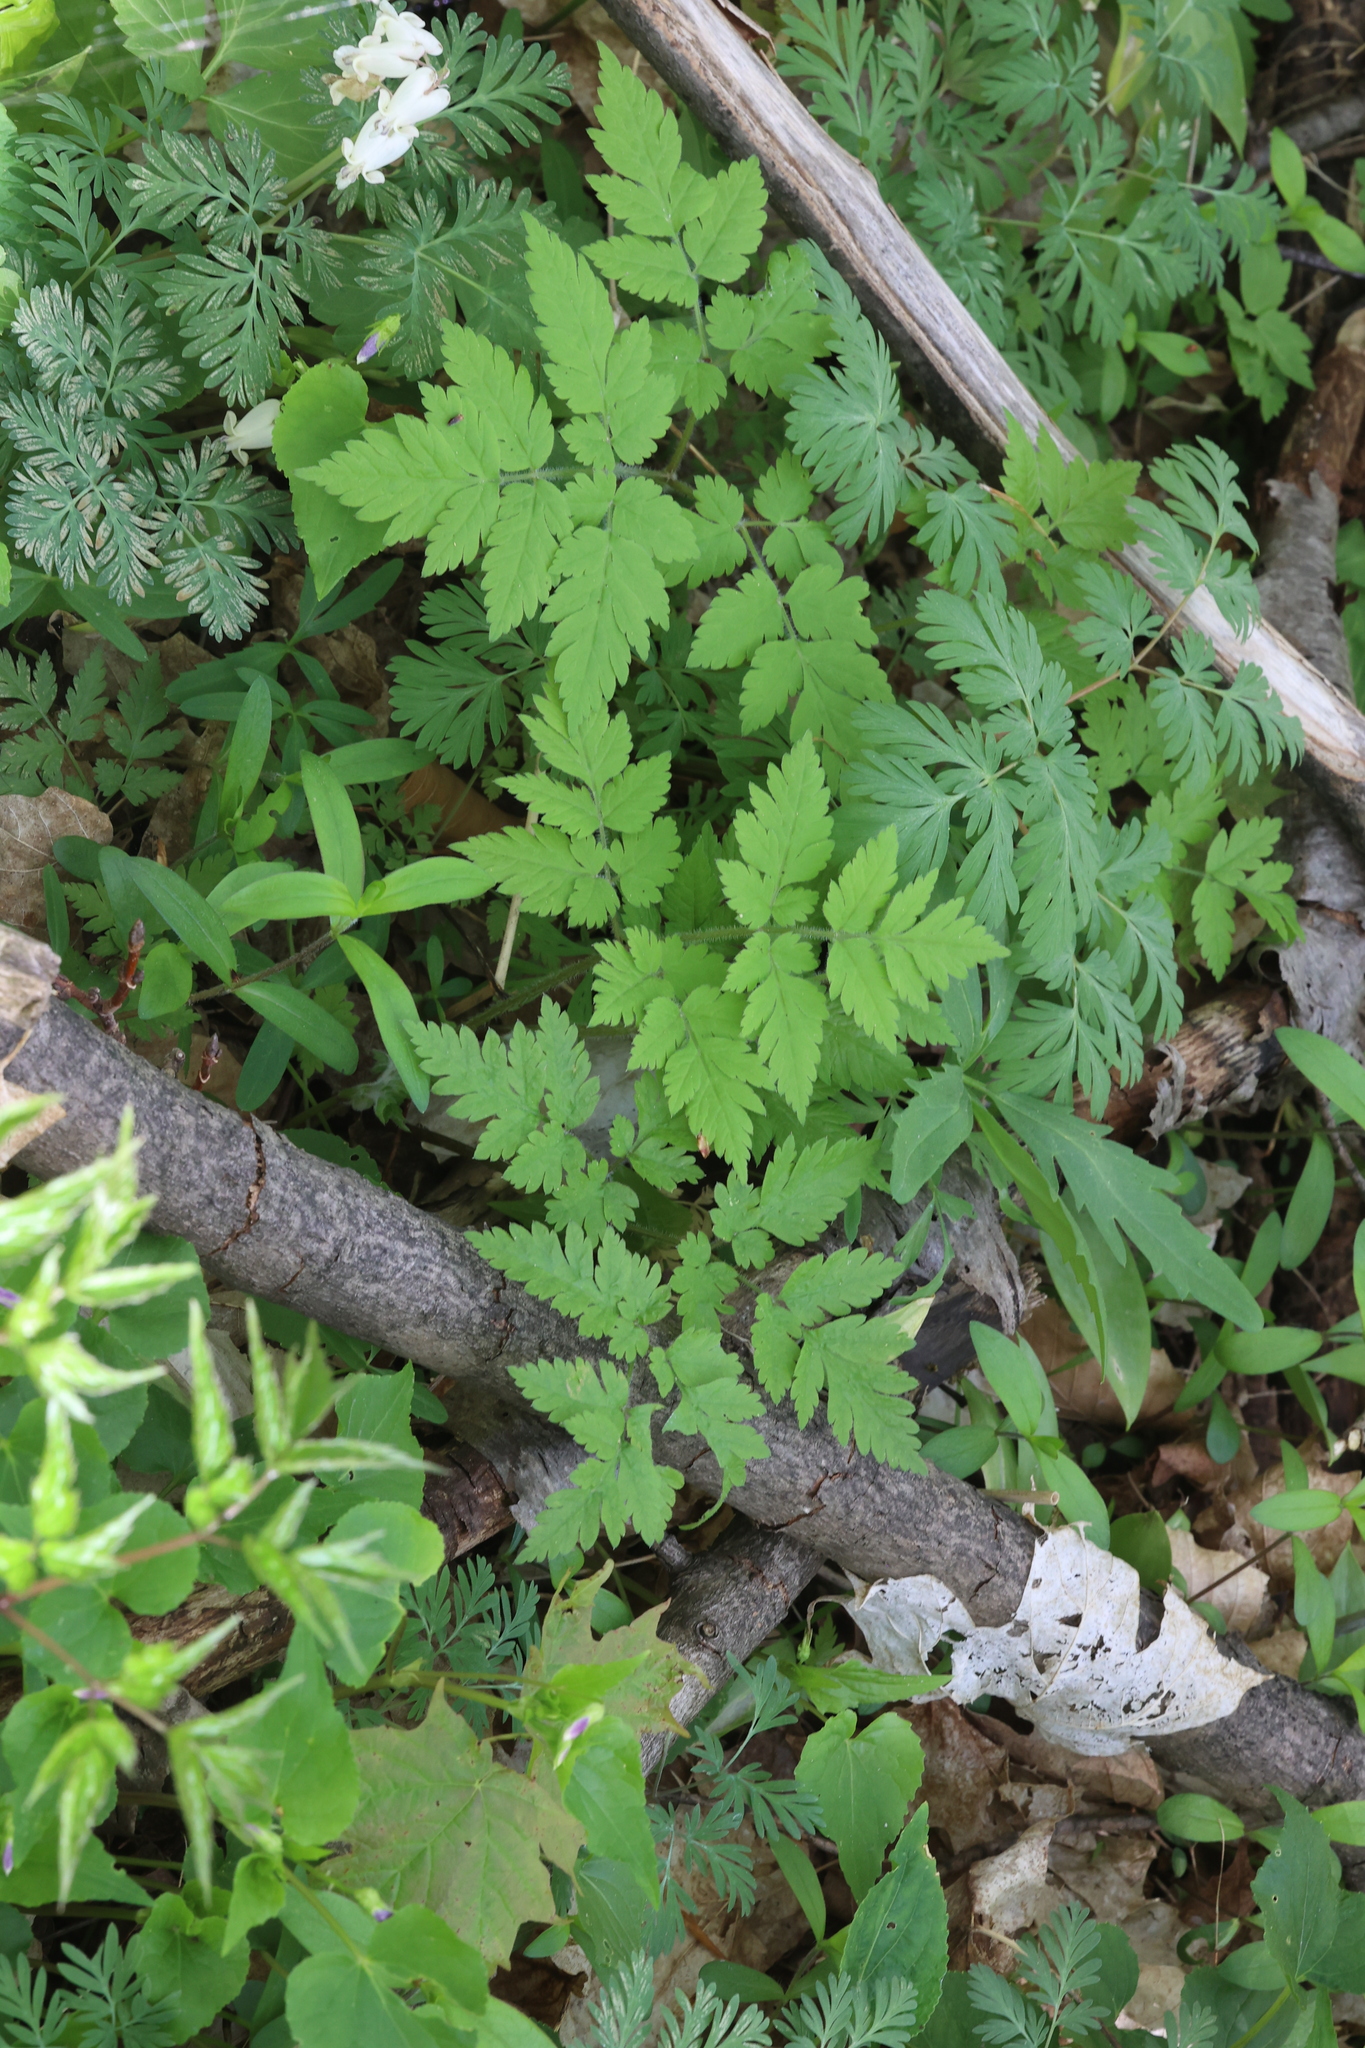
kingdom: Plantae
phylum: Tracheophyta
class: Magnoliopsida
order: Apiales
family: Apiaceae
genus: Osmorhiza
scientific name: Osmorhiza claytonii
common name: Hairy sweet cicely
